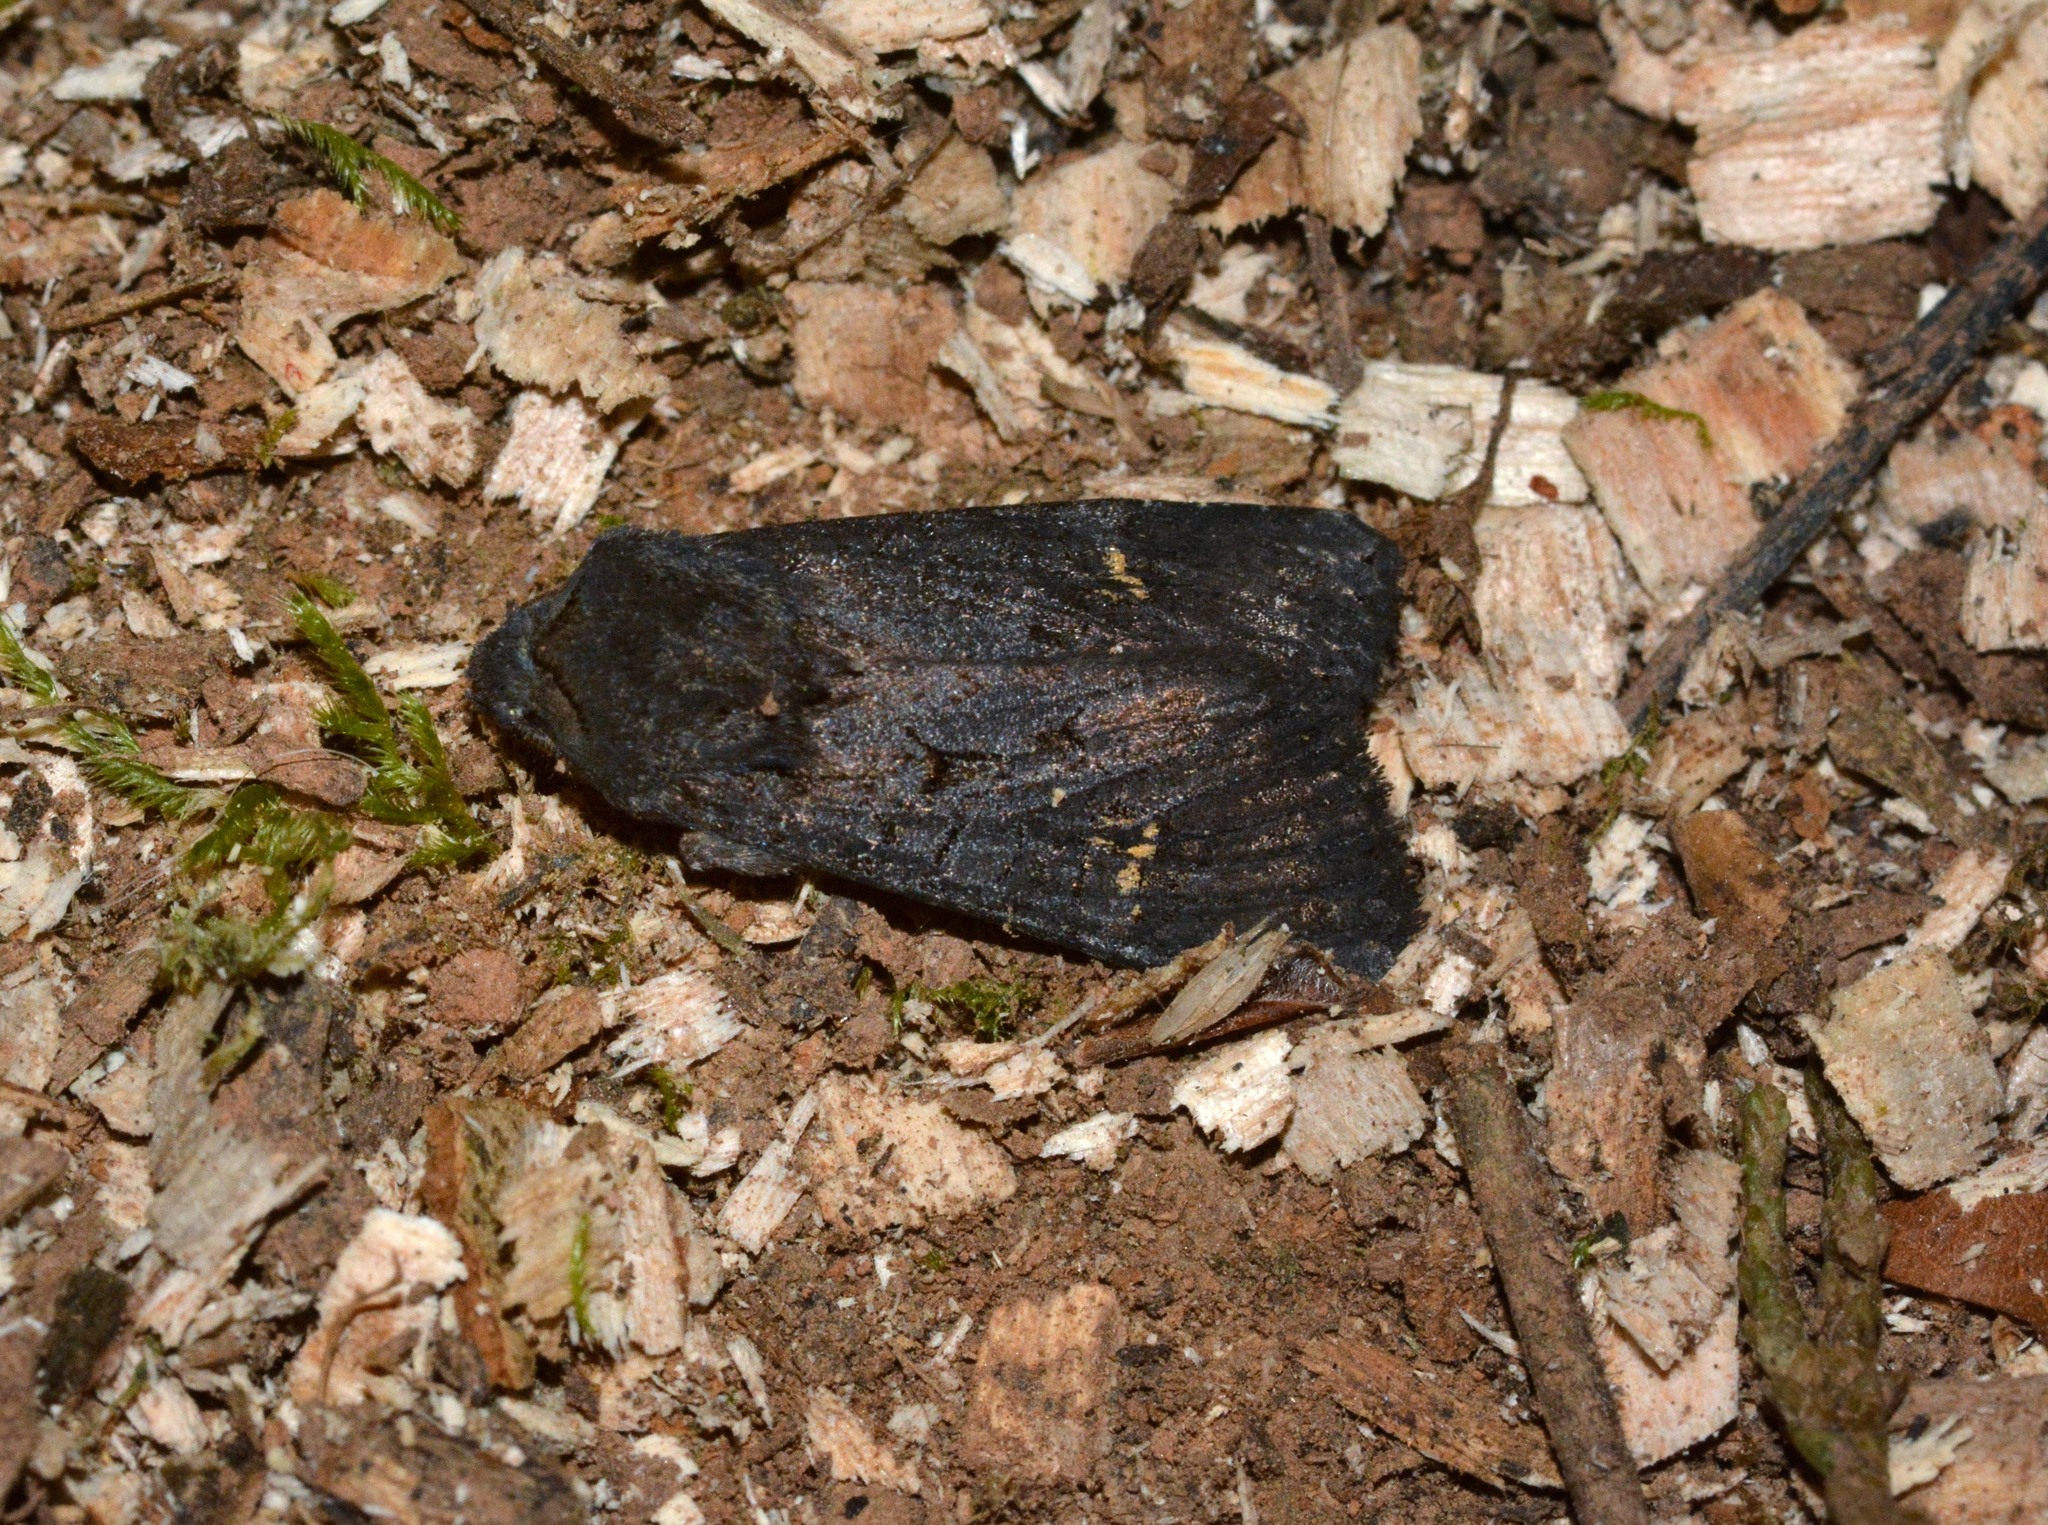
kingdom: Animalia
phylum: Arthropoda
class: Insecta
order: Lepidoptera
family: Noctuidae
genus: Aporophyla
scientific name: Aporophyla nigra
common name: Black rustic
